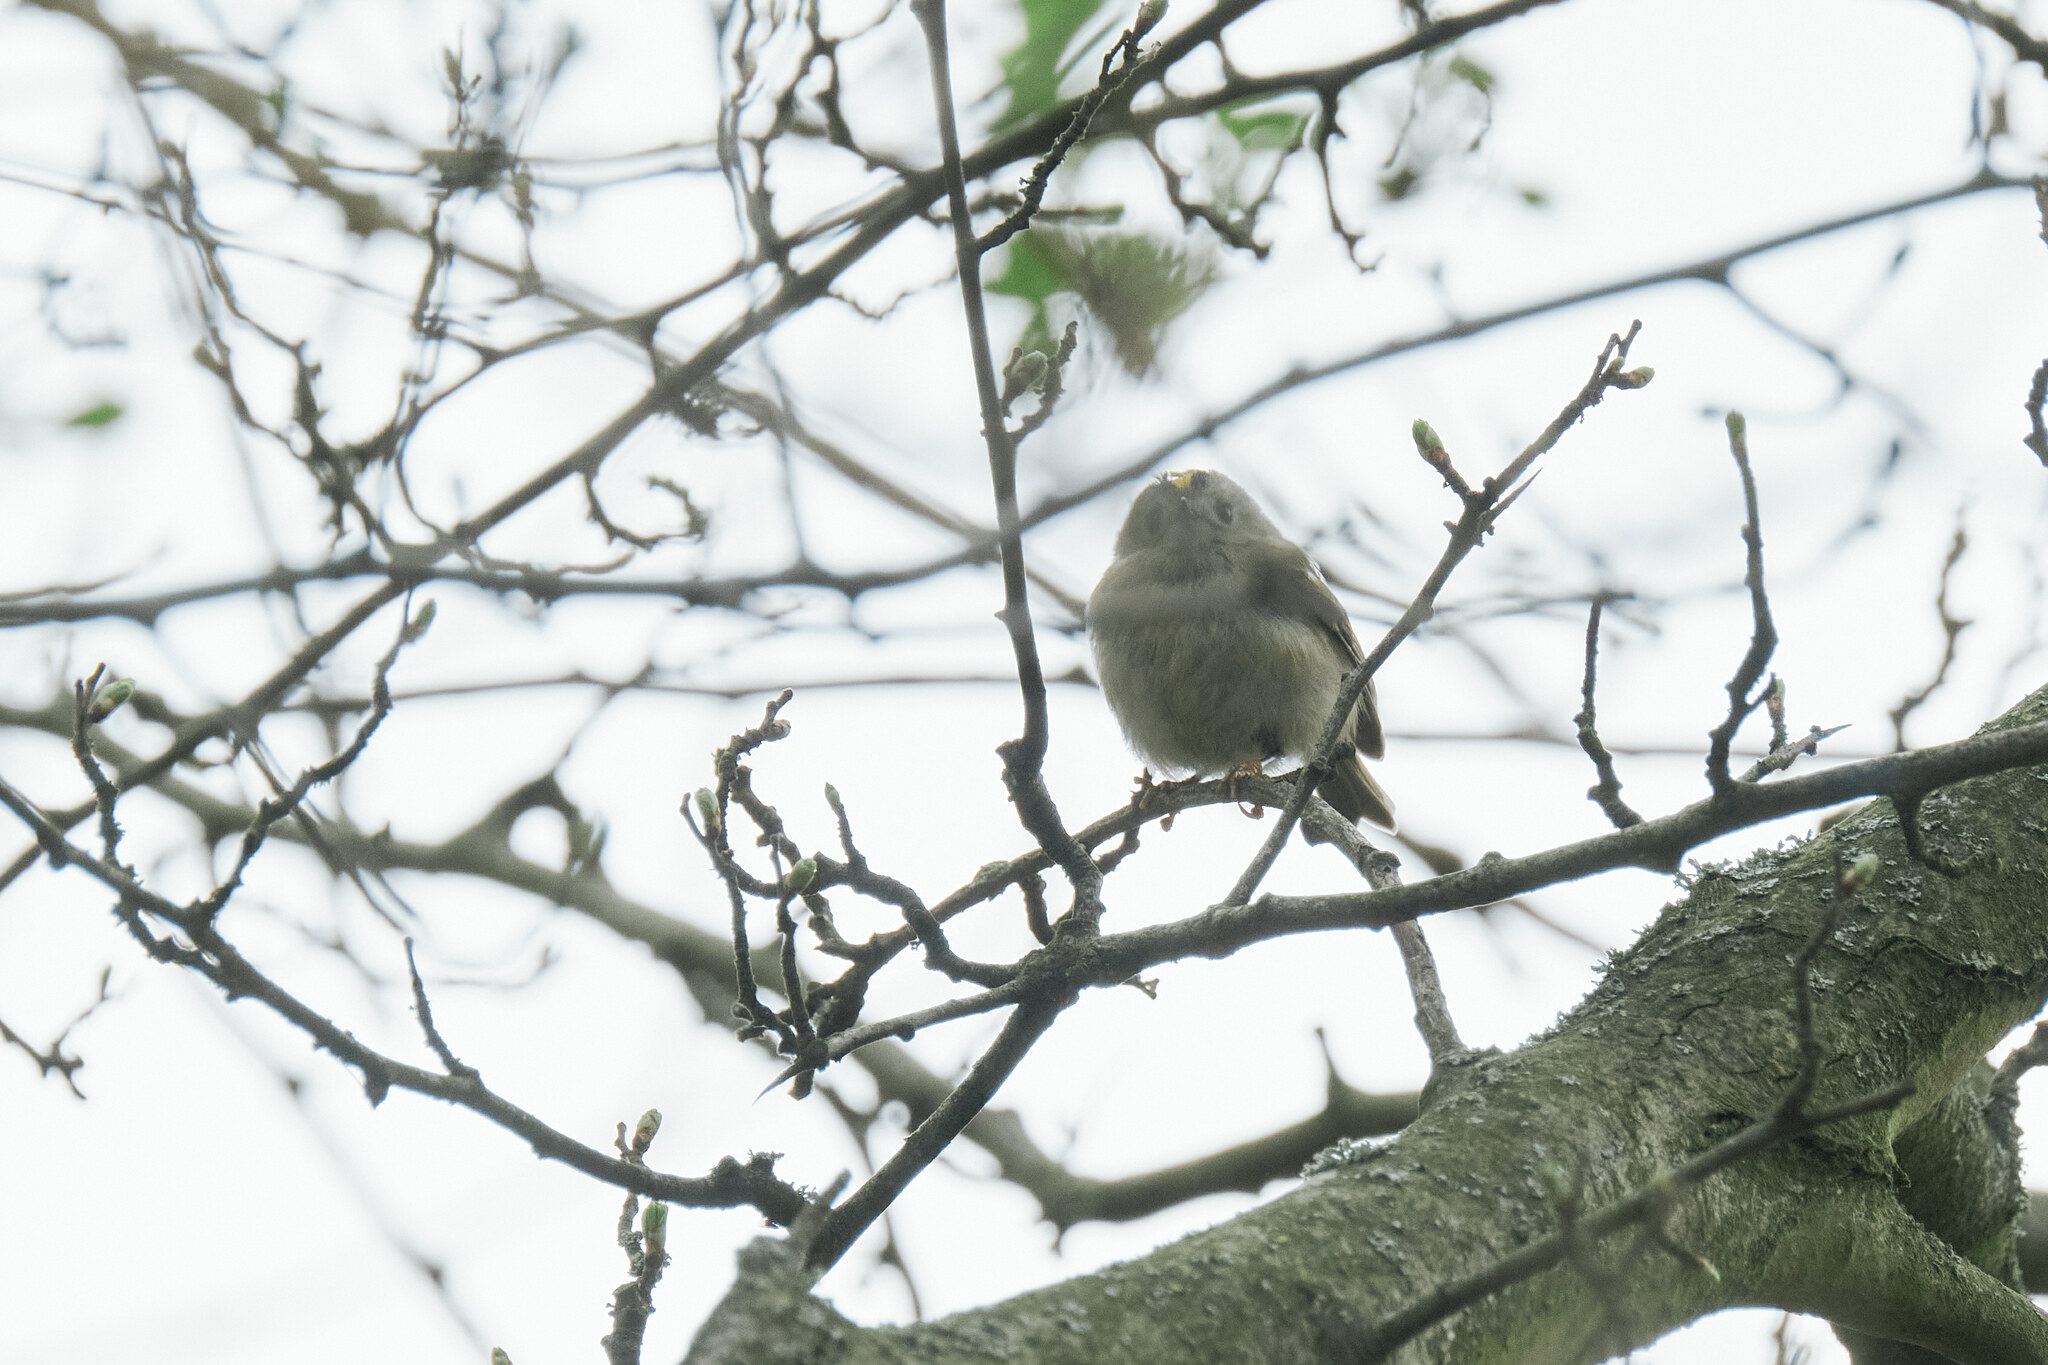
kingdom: Animalia
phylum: Chordata
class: Aves
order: Passeriformes
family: Regulidae
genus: Regulus
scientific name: Regulus regulus
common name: Goldcrest
